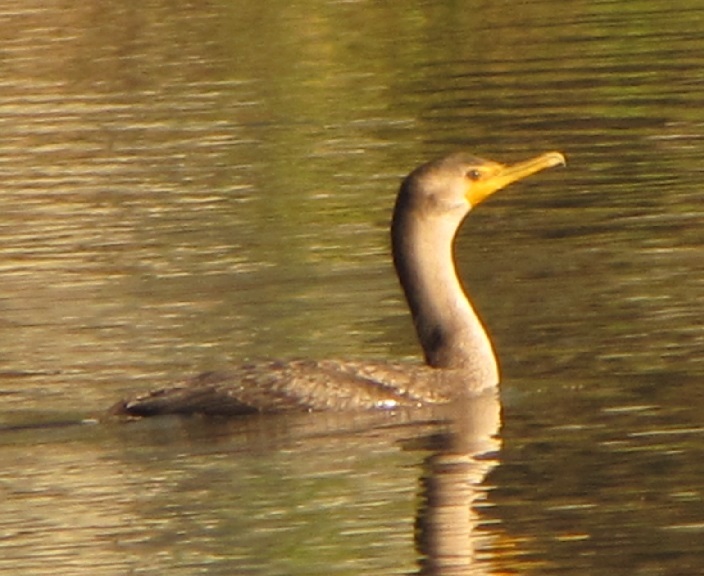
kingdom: Animalia
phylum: Chordata
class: Aves
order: Suliformes
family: Phalacrocoracidae
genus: Phalacrocorax
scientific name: Phalacrocorax auritus
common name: Double-crested cormorant
